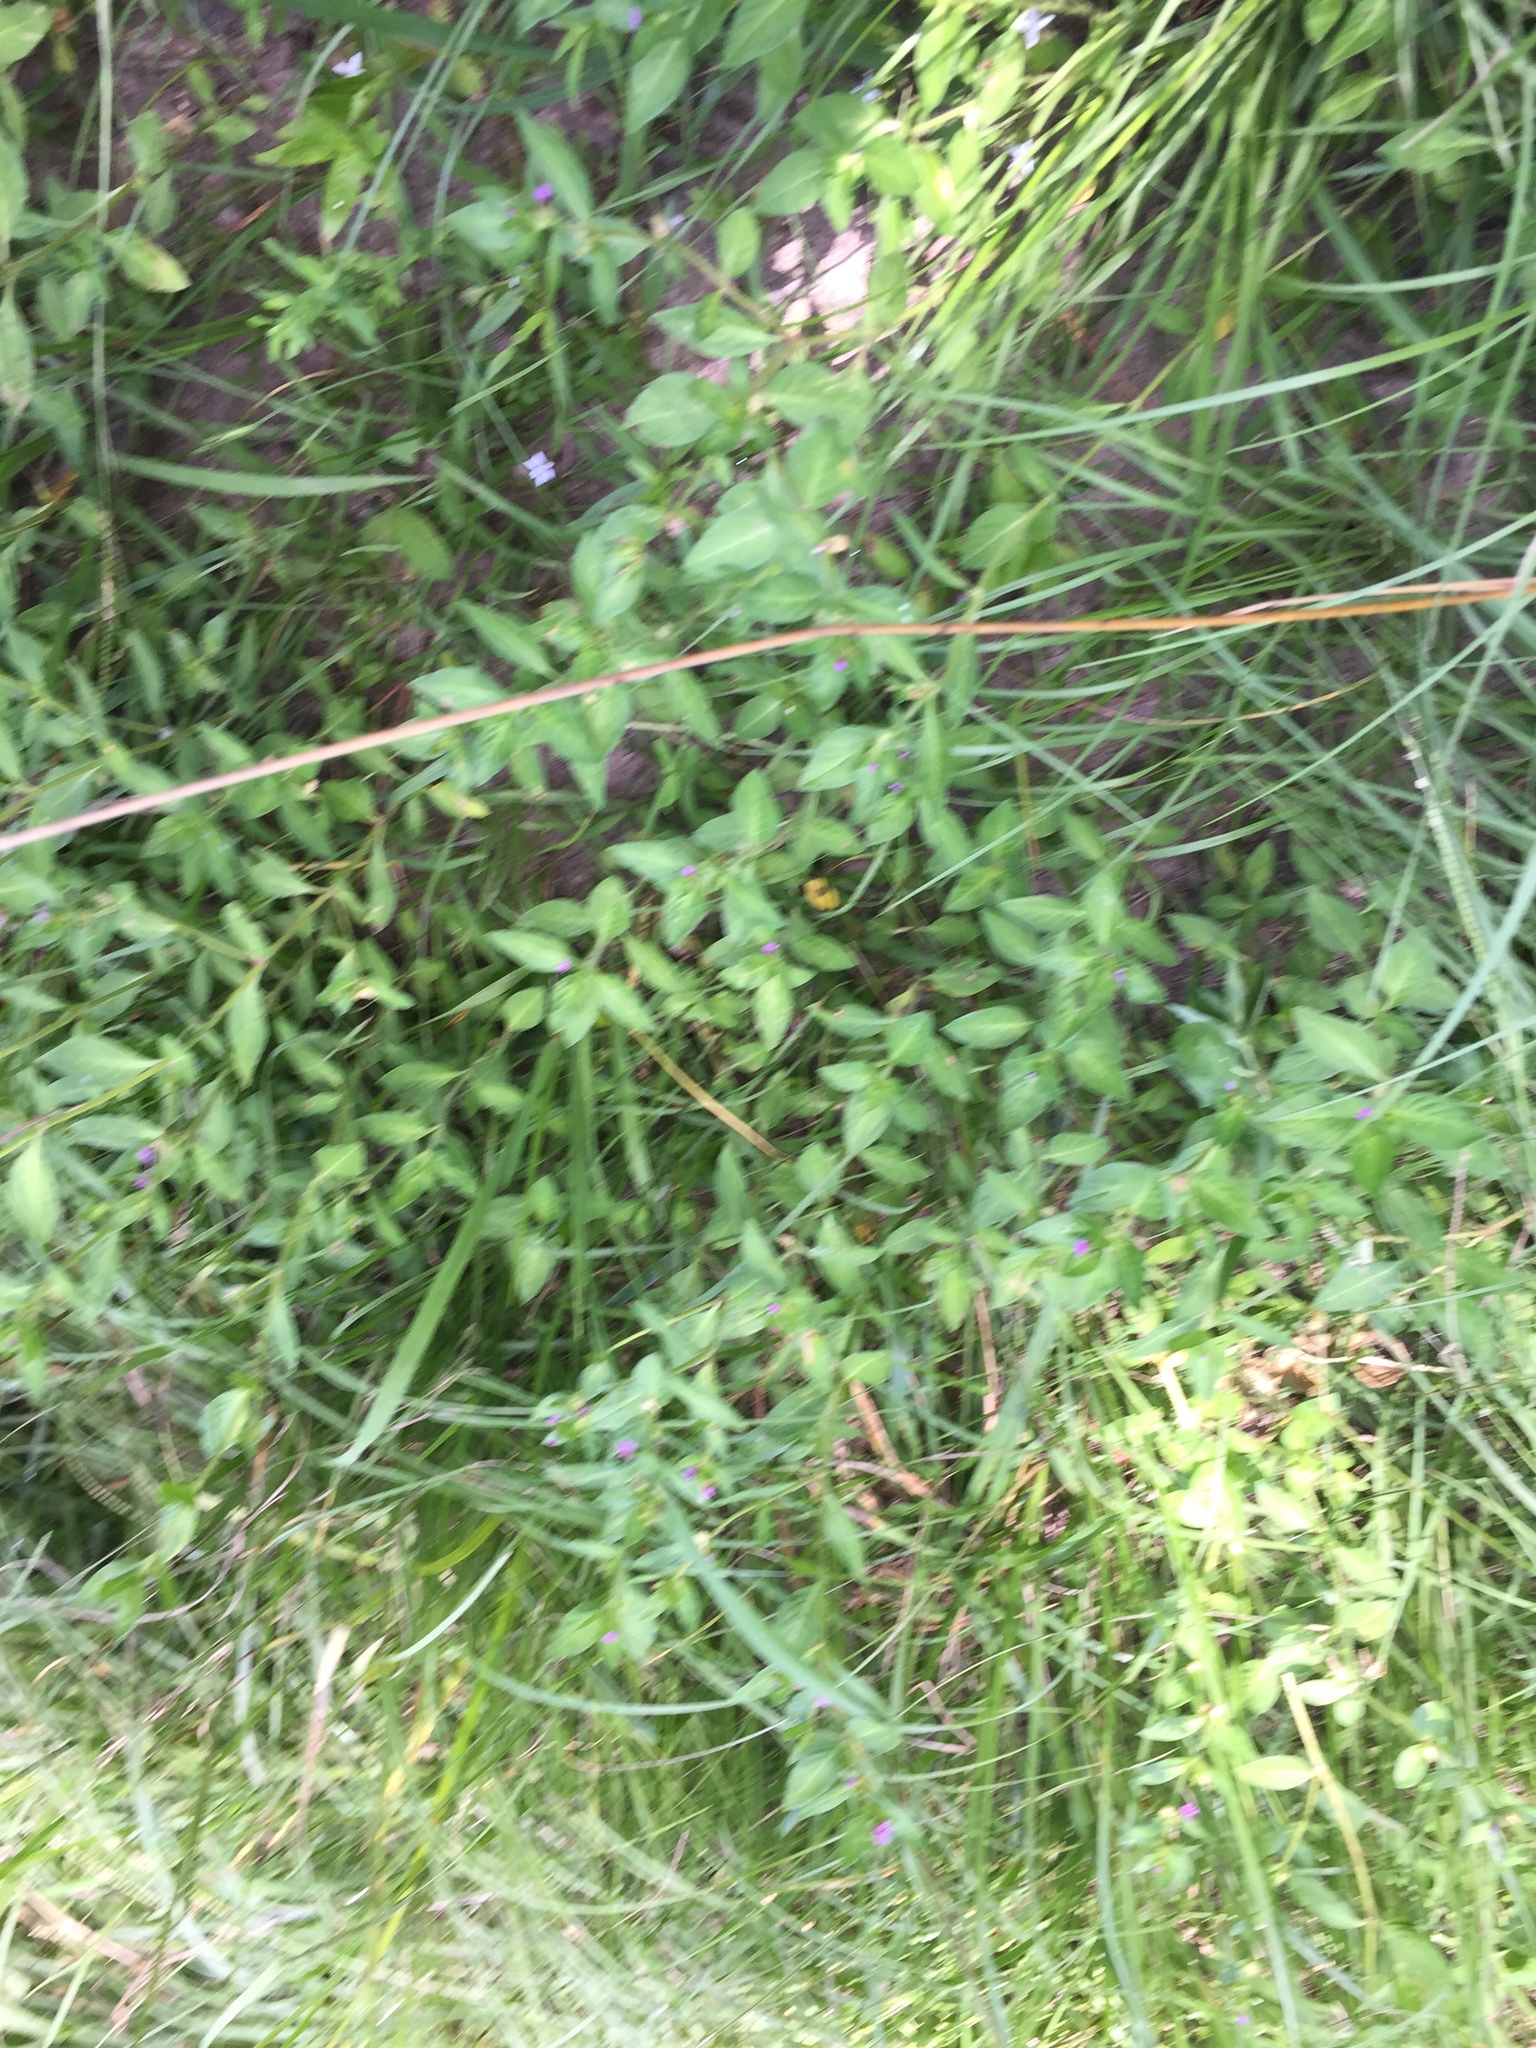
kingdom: Plantae
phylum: Tracheophyta
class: Magnoliopsida
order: Myrtales
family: Lythraceae
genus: Cuphea
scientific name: Cuphea carthagenensis
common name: Colombian waxweed
